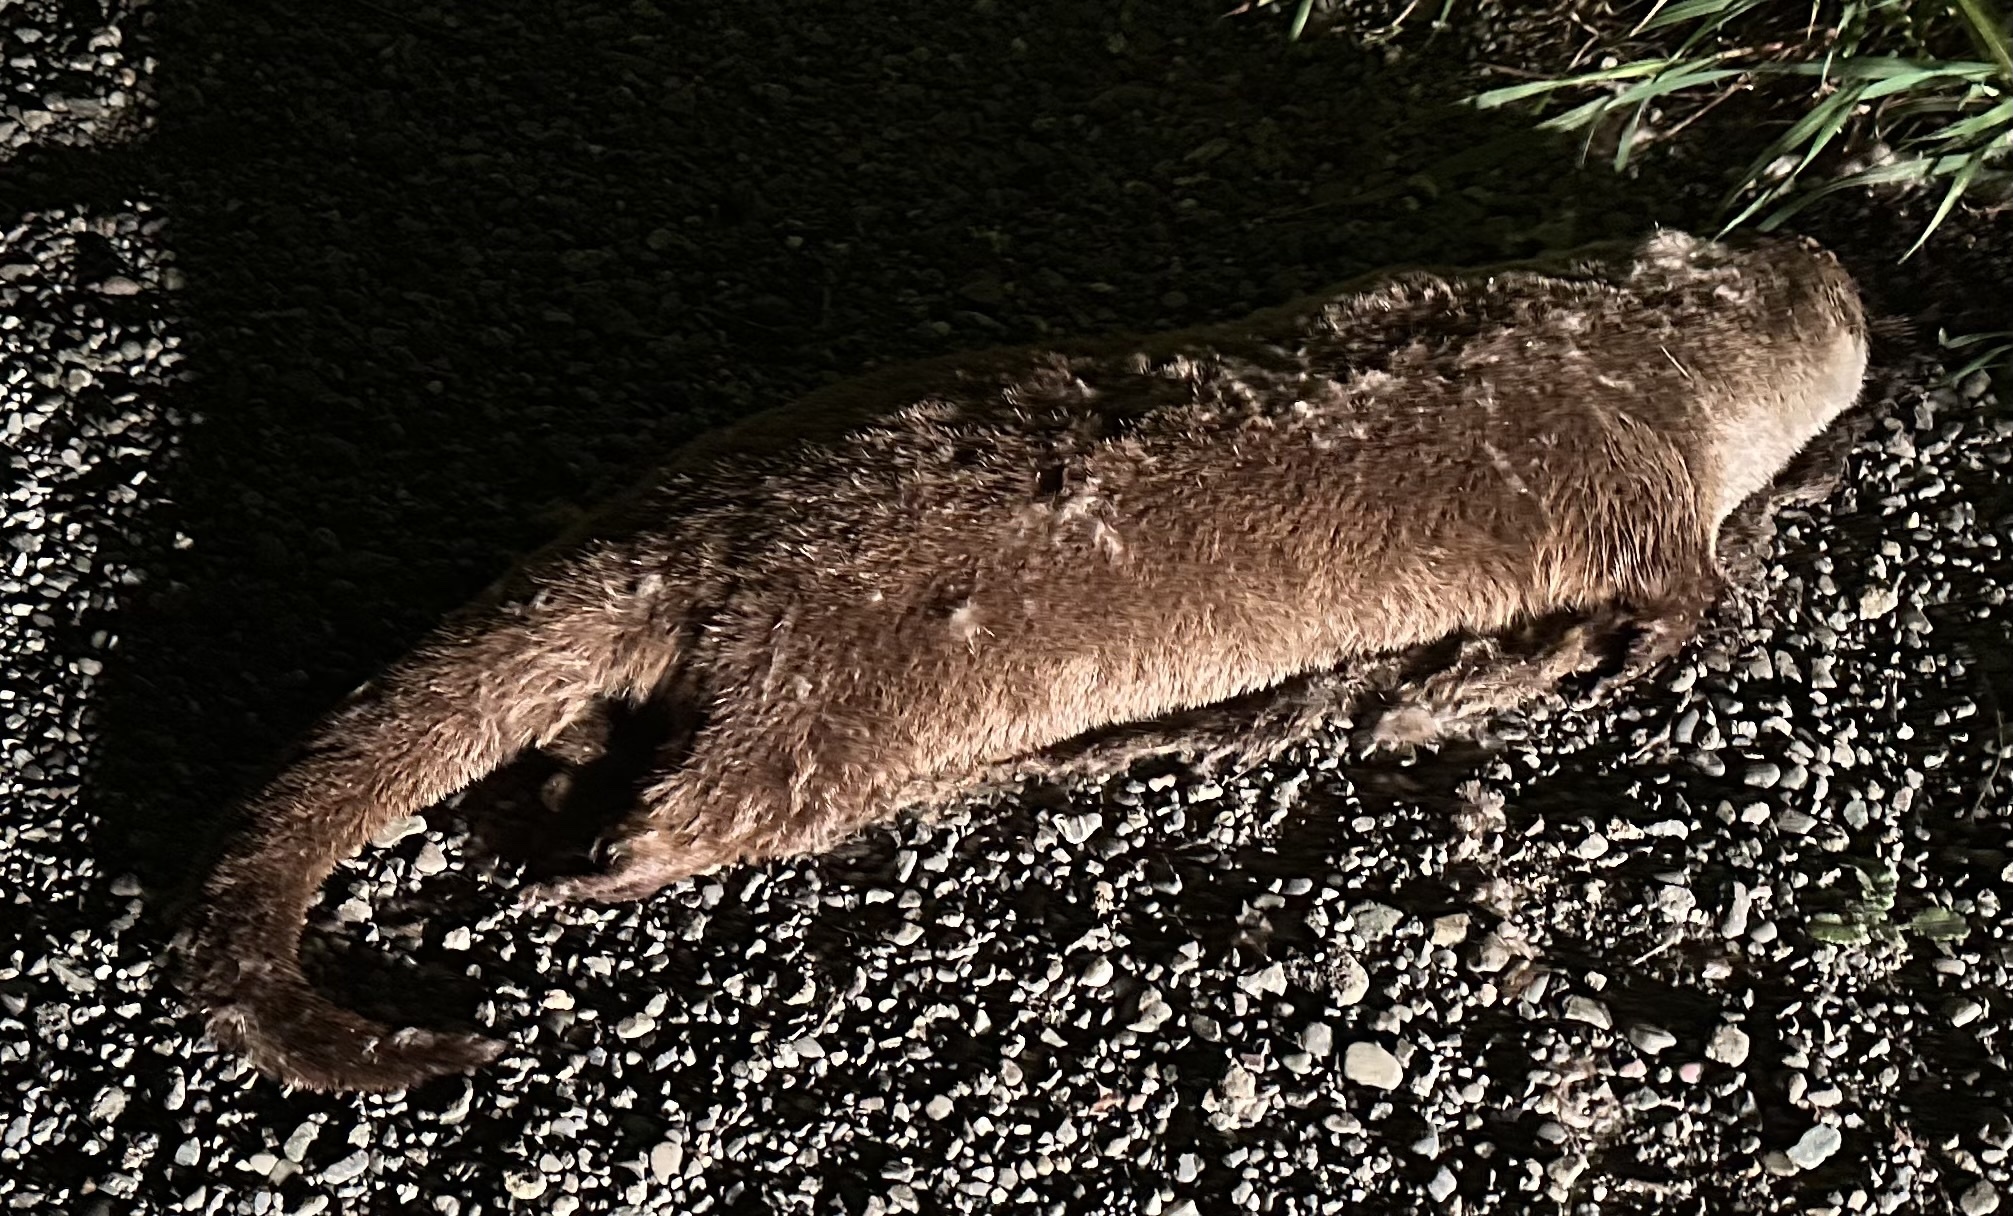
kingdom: Animalia
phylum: Chordata
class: Mammalia
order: Carnivora
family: Mustelidae
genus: Lontra
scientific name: Lontra canadensis
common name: North american river otter
